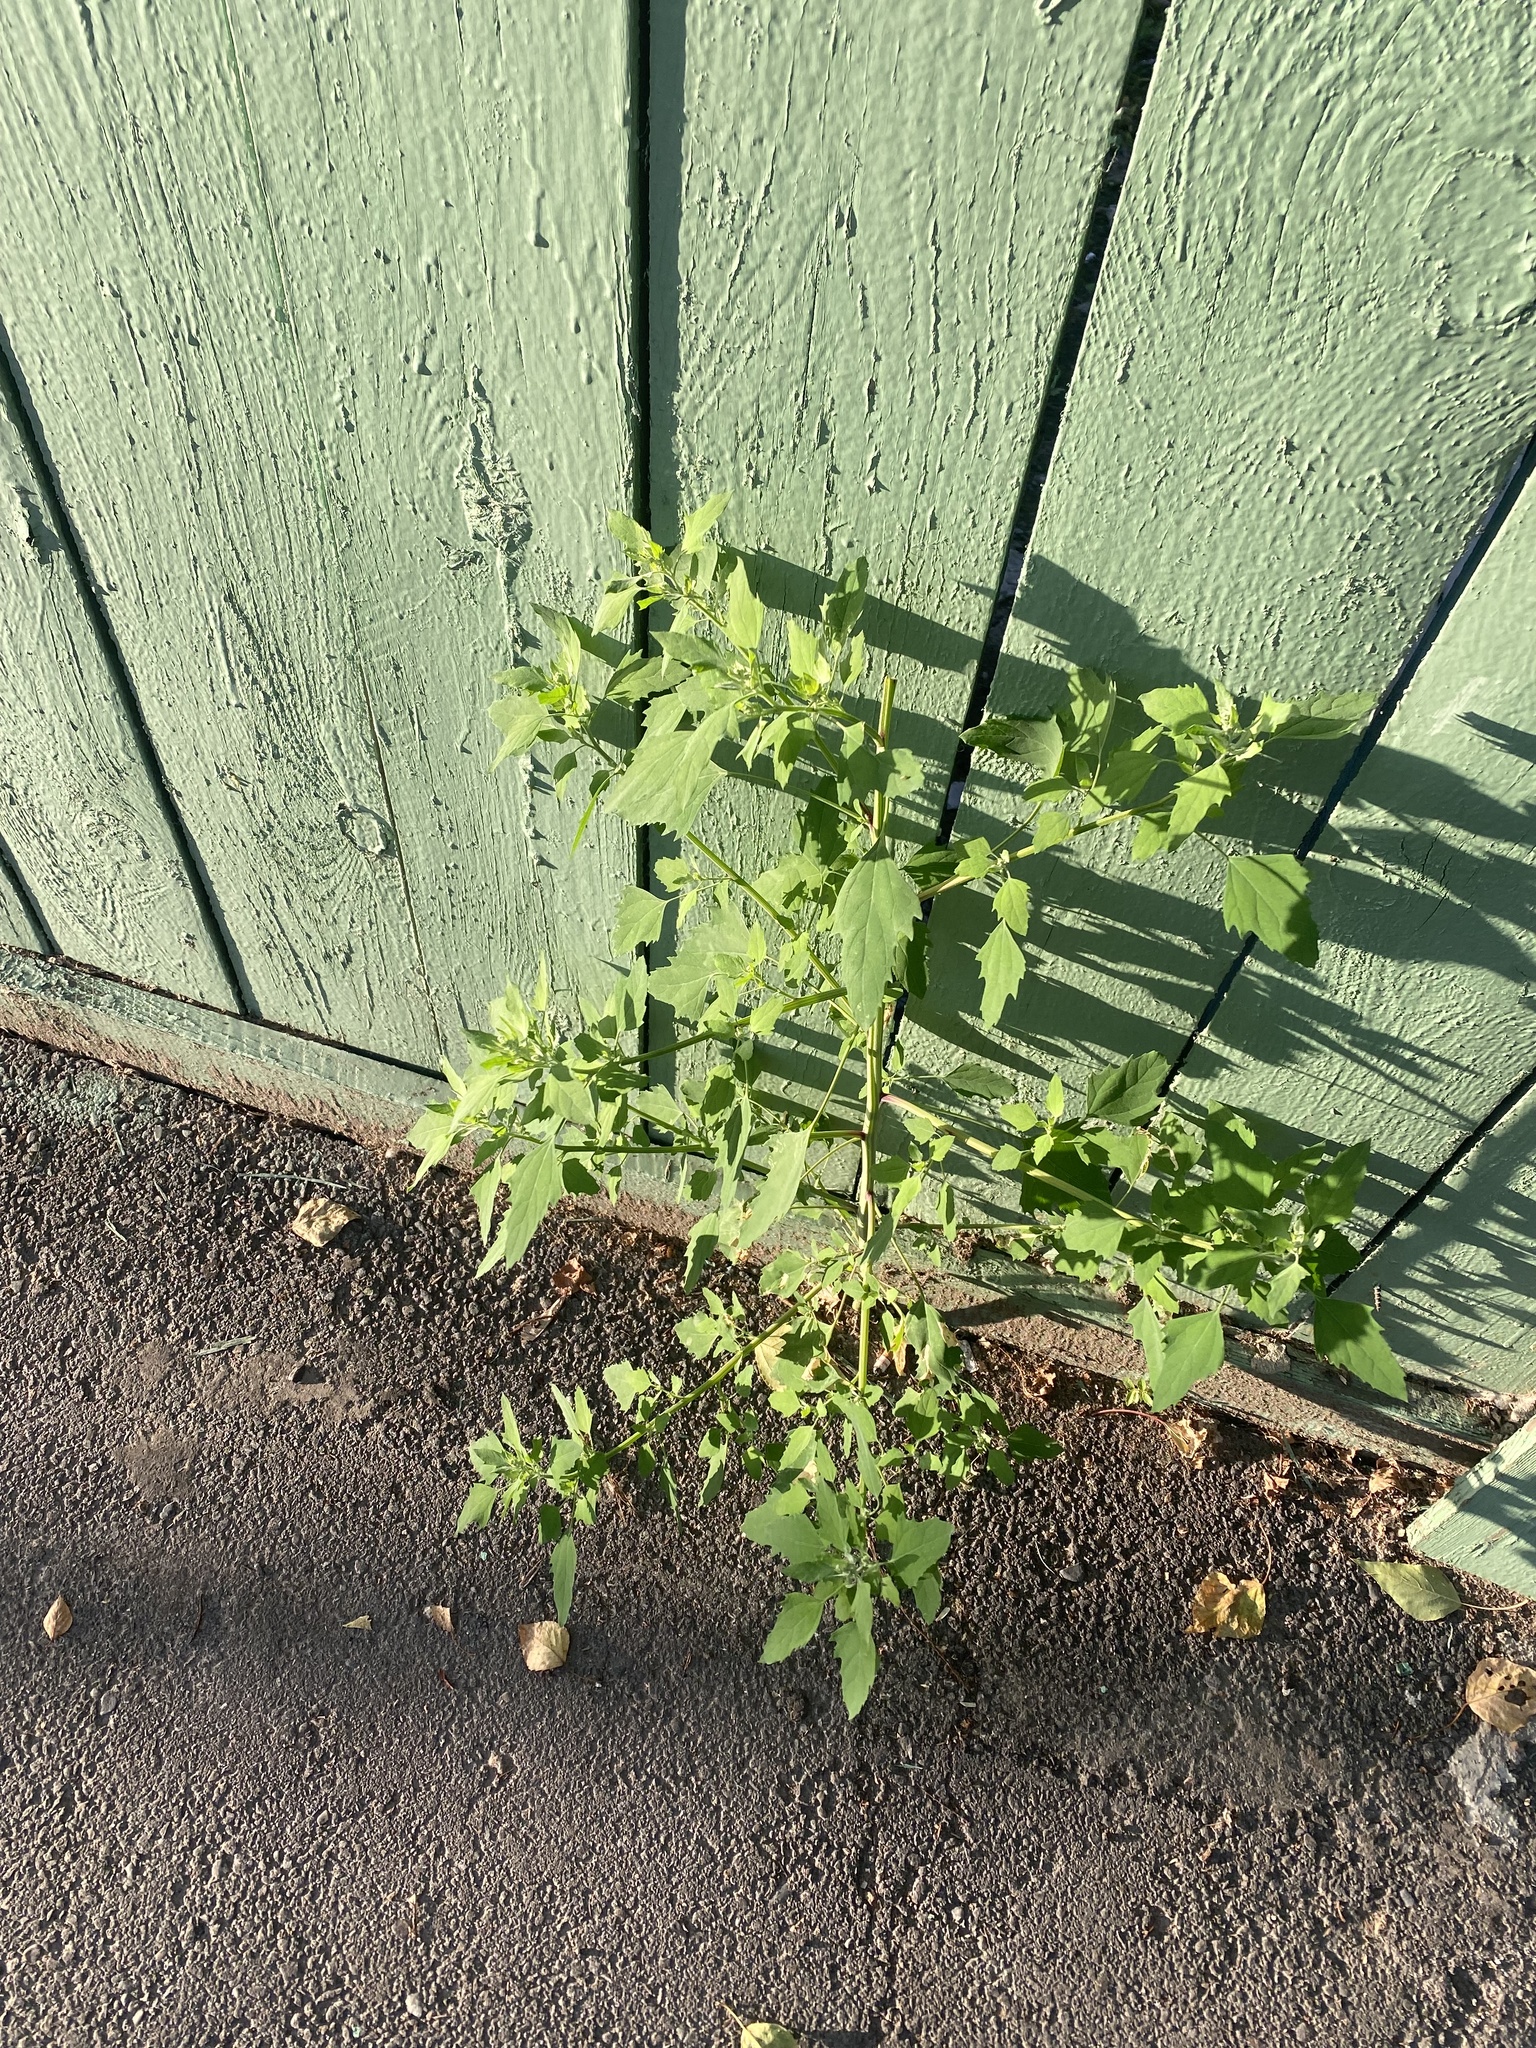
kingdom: Plantae
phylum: Tracheophyta
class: Magnoliopsida
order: Caryophyllales
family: Amaranthaceae
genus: Chenopodium
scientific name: Chenopodium album
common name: Fat-hen
